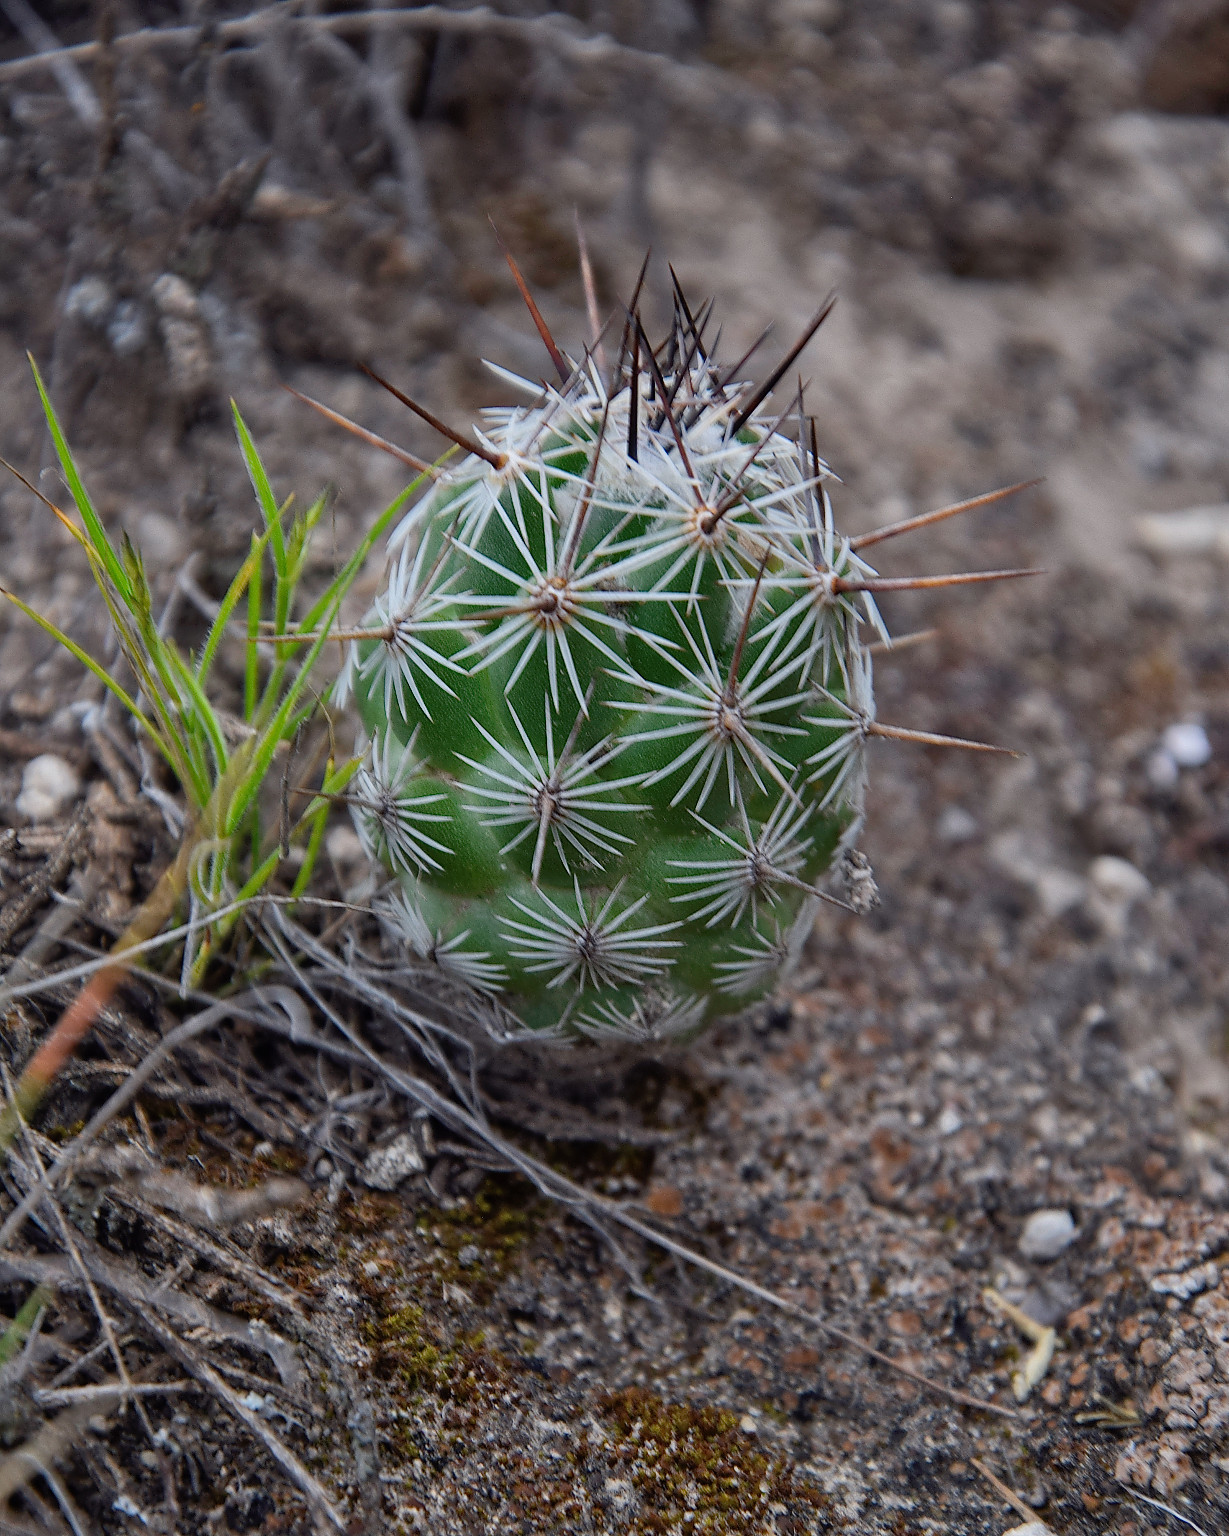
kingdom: Plantae
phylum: Tracheophyta
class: Magnoliopsida
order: Caryophyllales
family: Cactaceae
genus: Cochemiea
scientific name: Cochemiea conoidea
